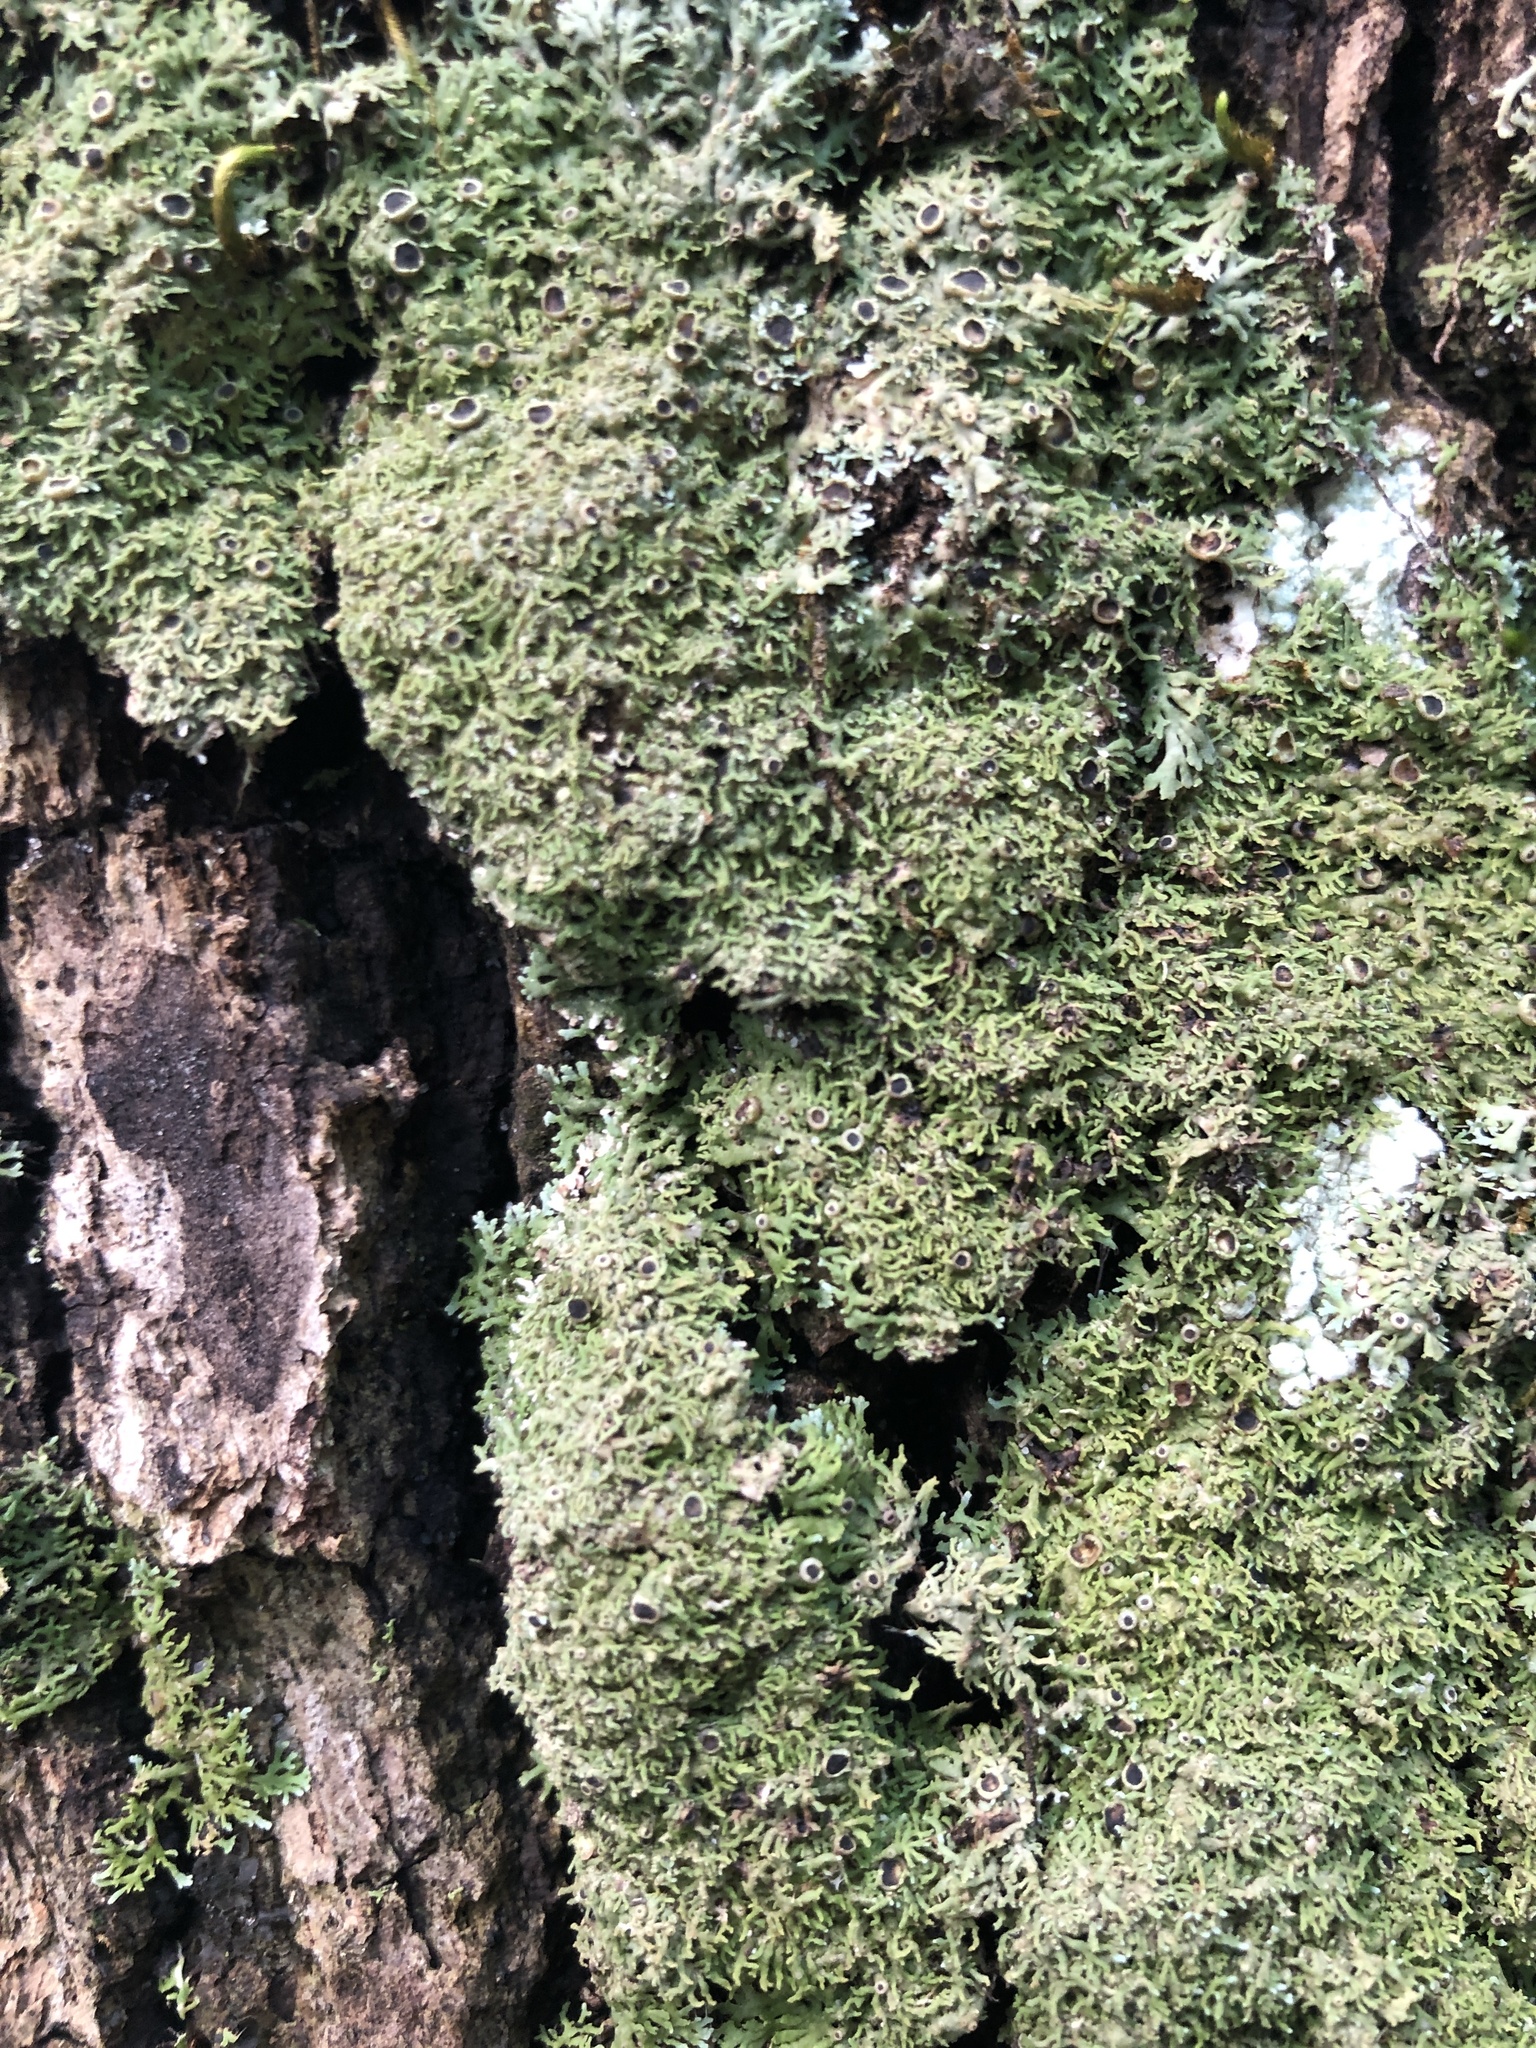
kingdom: Fungi
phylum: Ascomycota
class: Lecanoromycetes
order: Caliciales
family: Physciaceae
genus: Kurokawia
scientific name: Kurokawia palmulata
